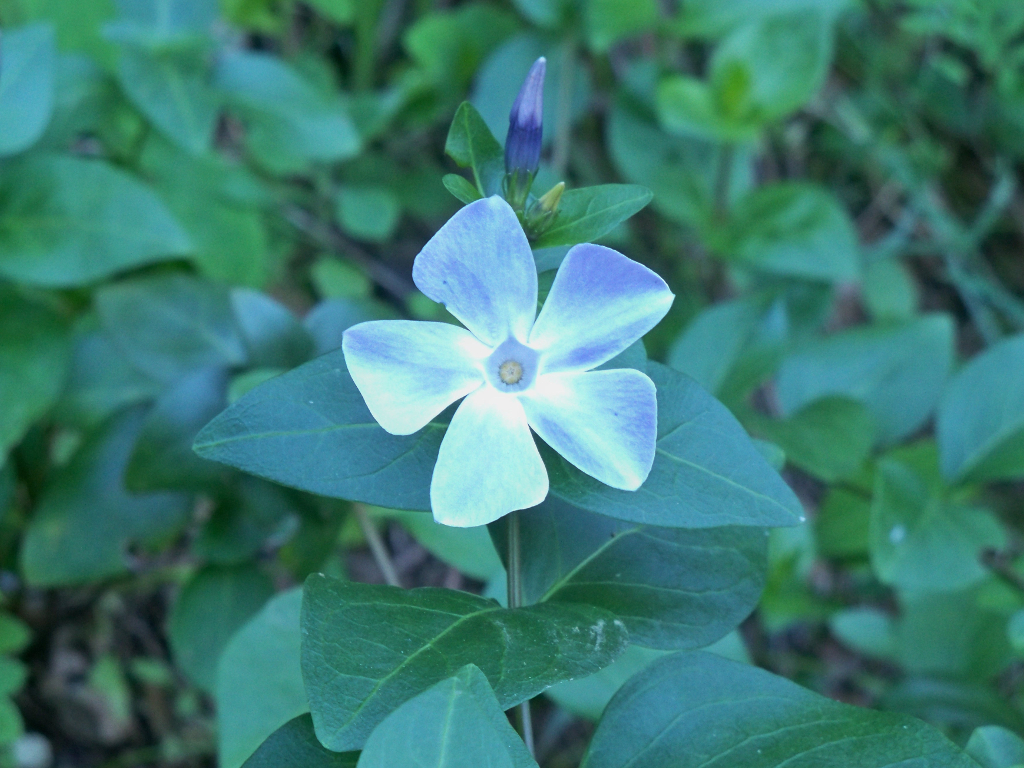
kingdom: Plantae
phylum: Tracheophyta
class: Magnoliopsida
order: Gentianales
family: Apocynaceae
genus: Vinca
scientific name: Vinca difformis
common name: Intermediate periwinkle
